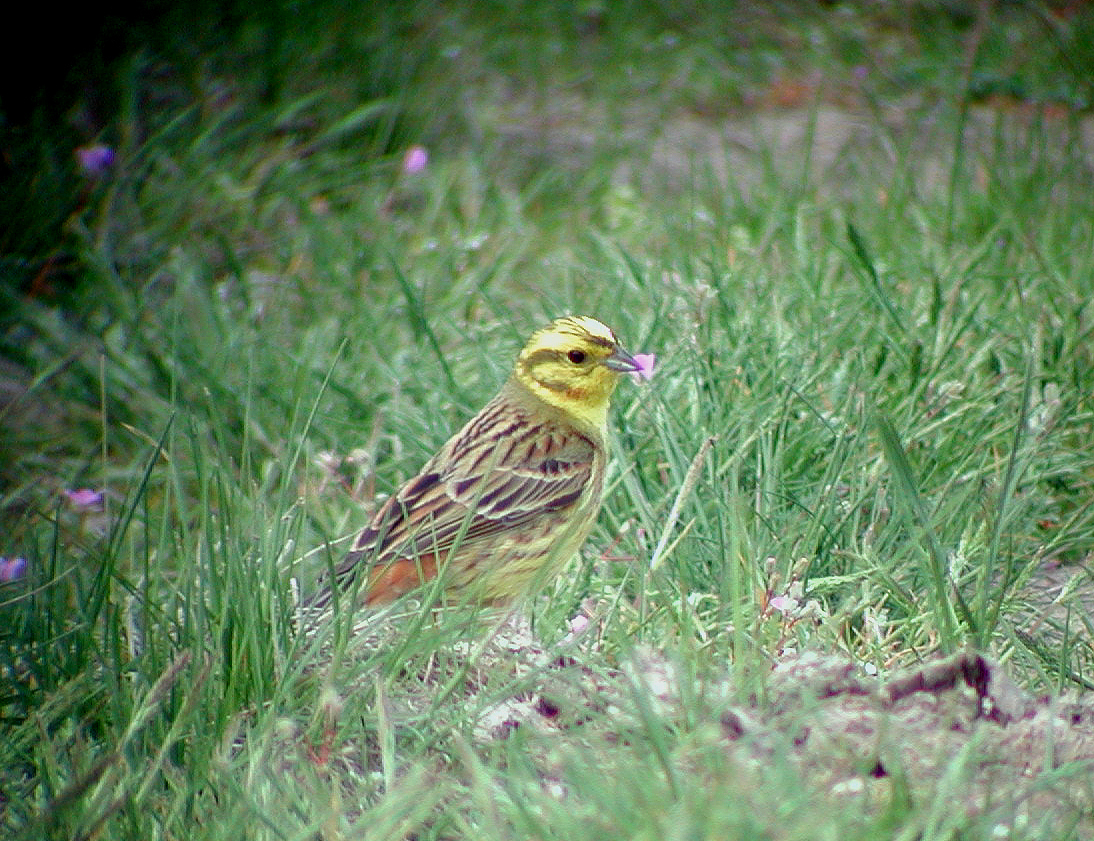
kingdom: Animalia
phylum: Chordata
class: Aves
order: Passeriformes
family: Emberizidae
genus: Emberiza
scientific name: Emberiza citrinella
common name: Yellowhammer
